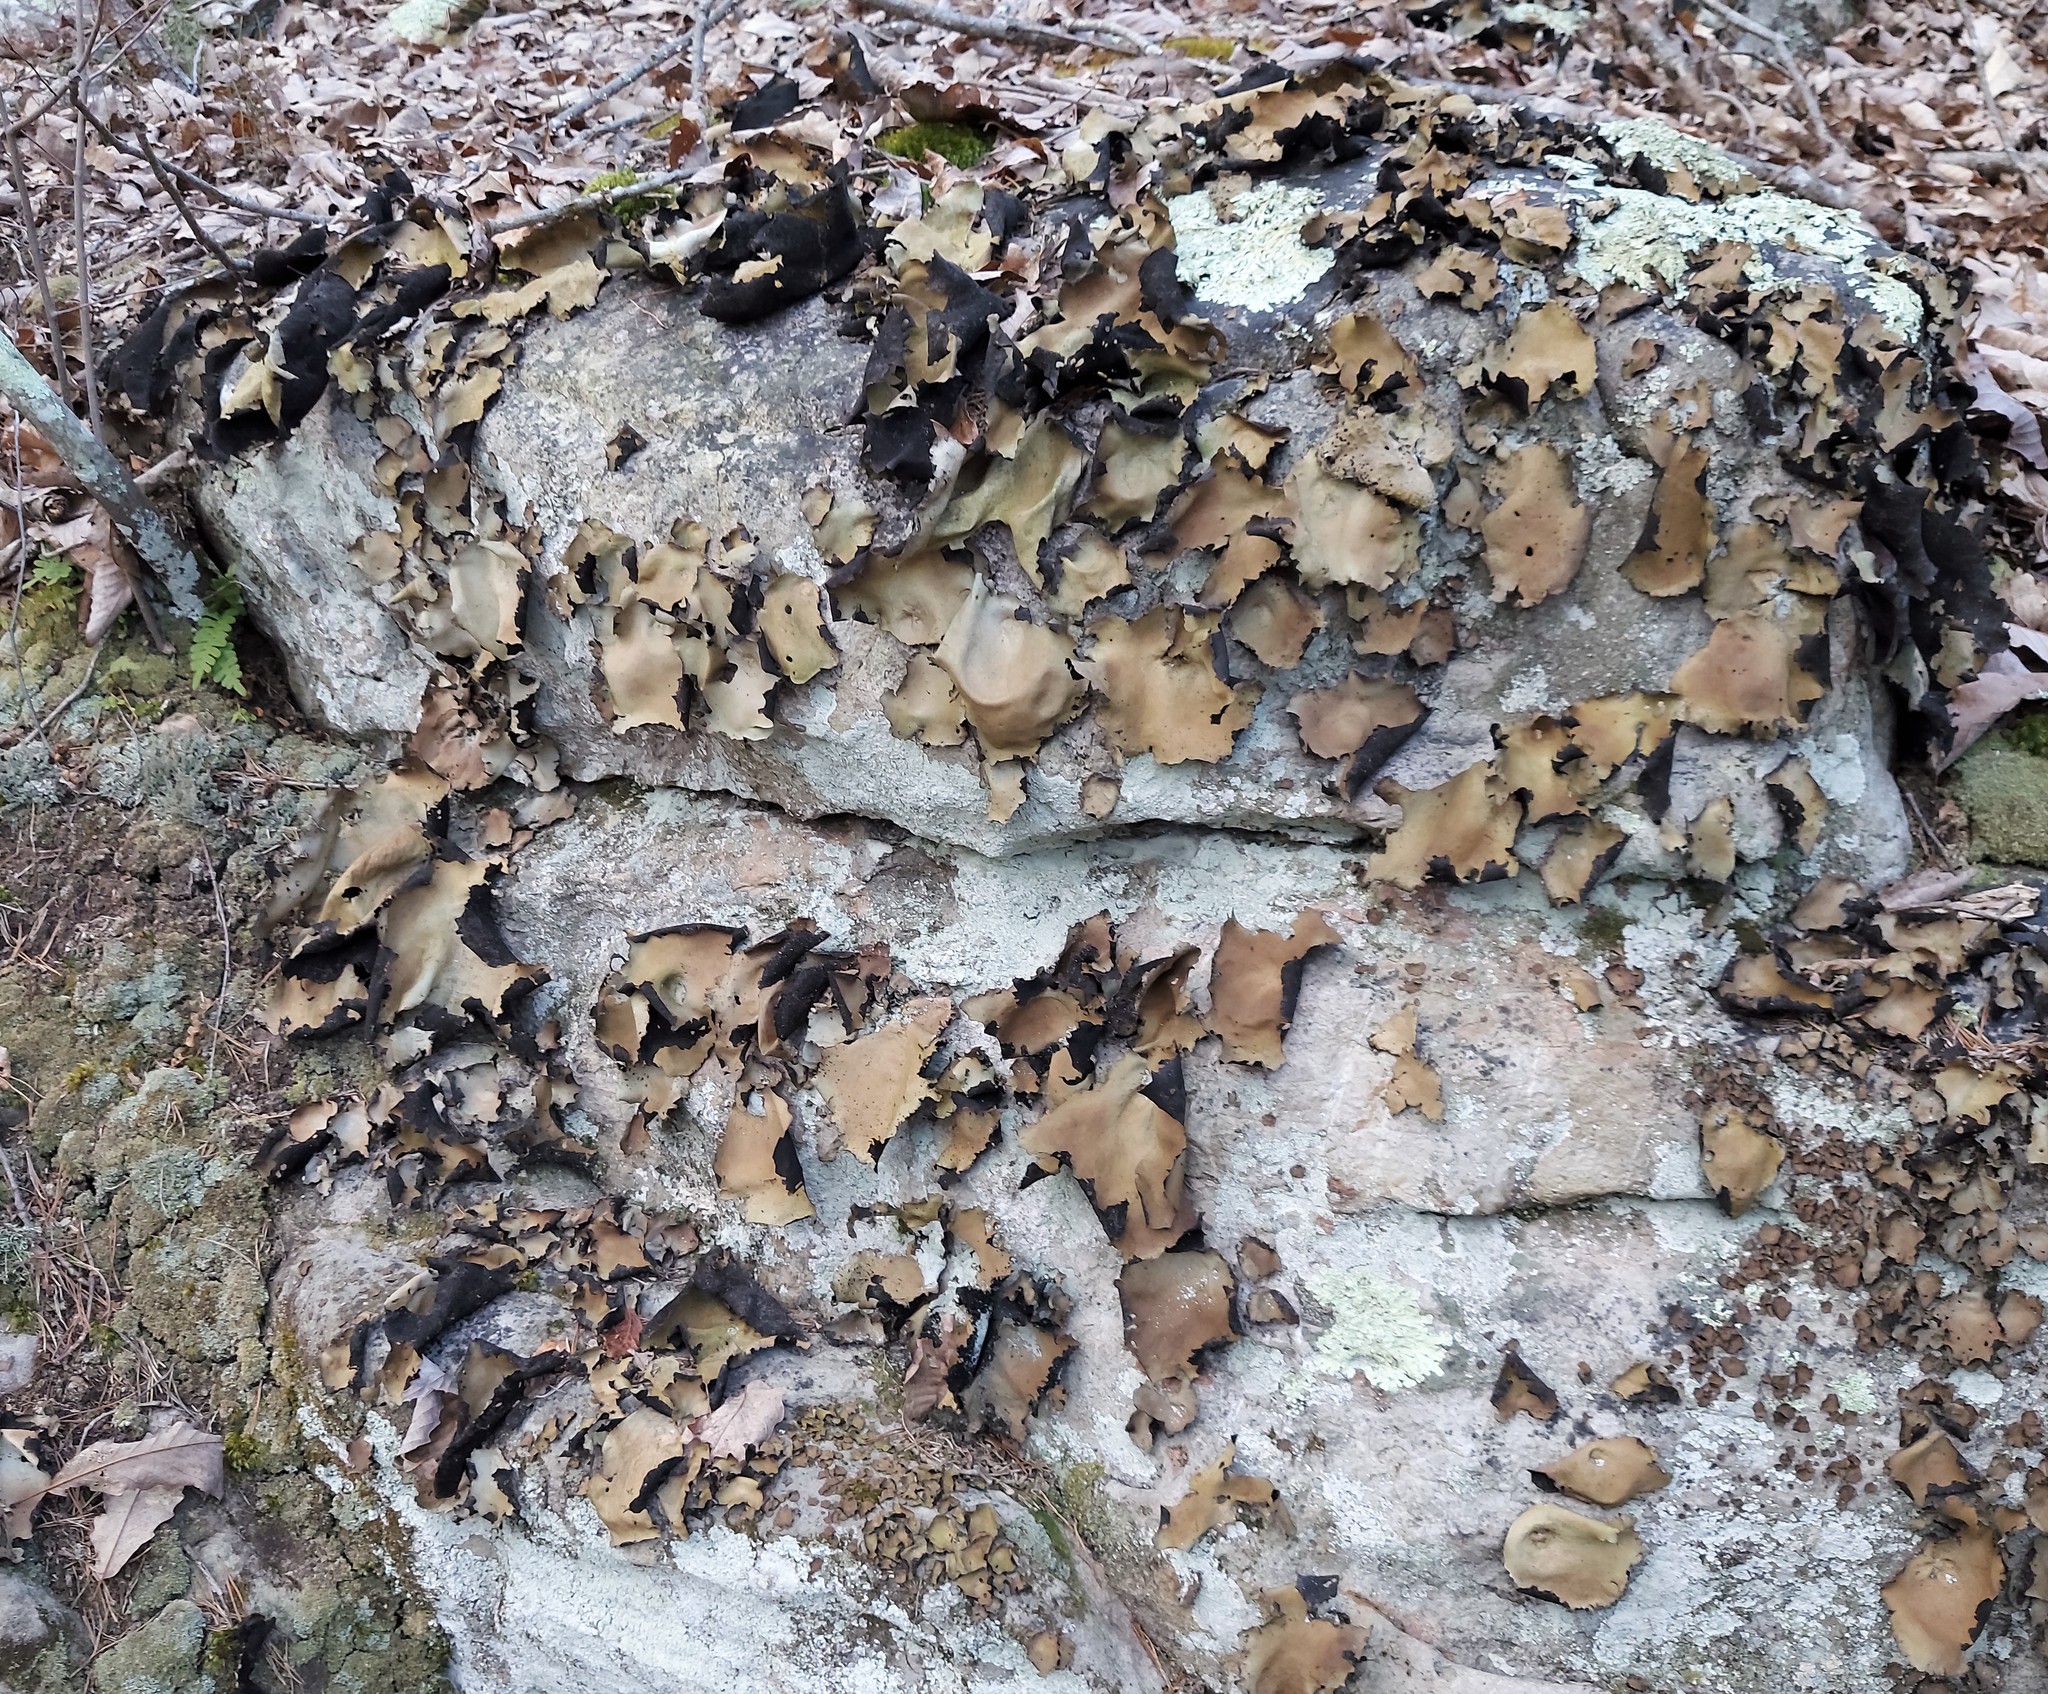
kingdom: Fungi
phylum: Ascomycota
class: Lecanoromycetes
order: Umbilicariales
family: Umbilicariaceae
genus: Umbilicaria
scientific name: Umbilicaria mammulata
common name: Smooth rock tripe
